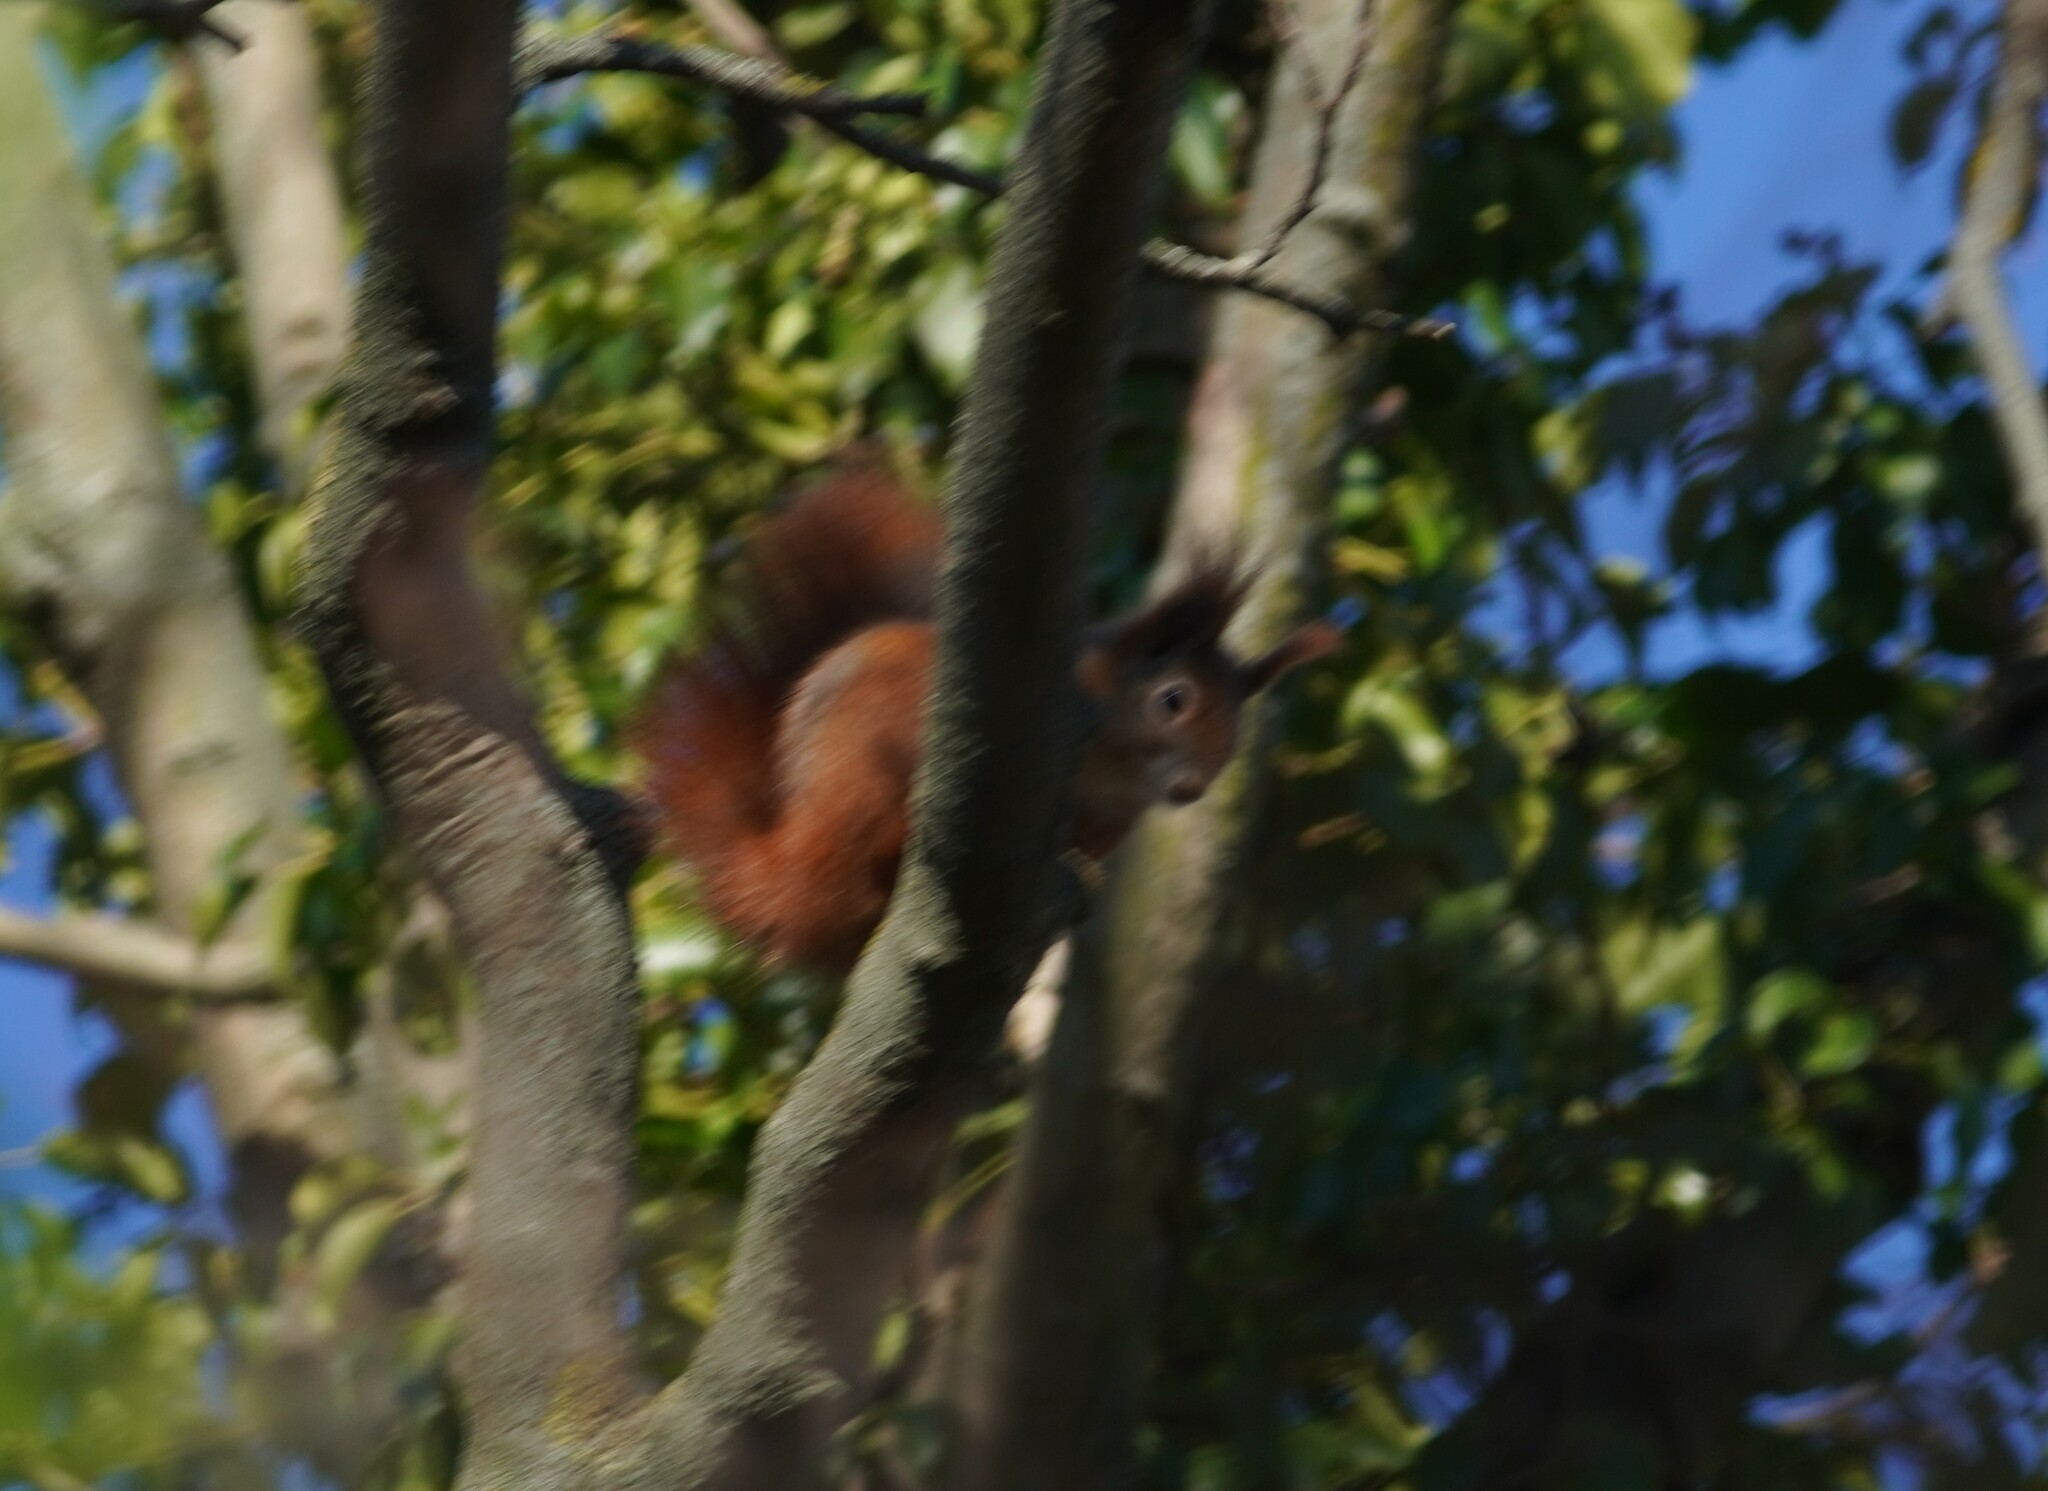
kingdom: Animalia
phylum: Chordata
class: Mammalia
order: Rodentia
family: Sciuridae
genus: Sciurus
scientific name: Sciurus vulgaris
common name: Eurasian red squirrel
